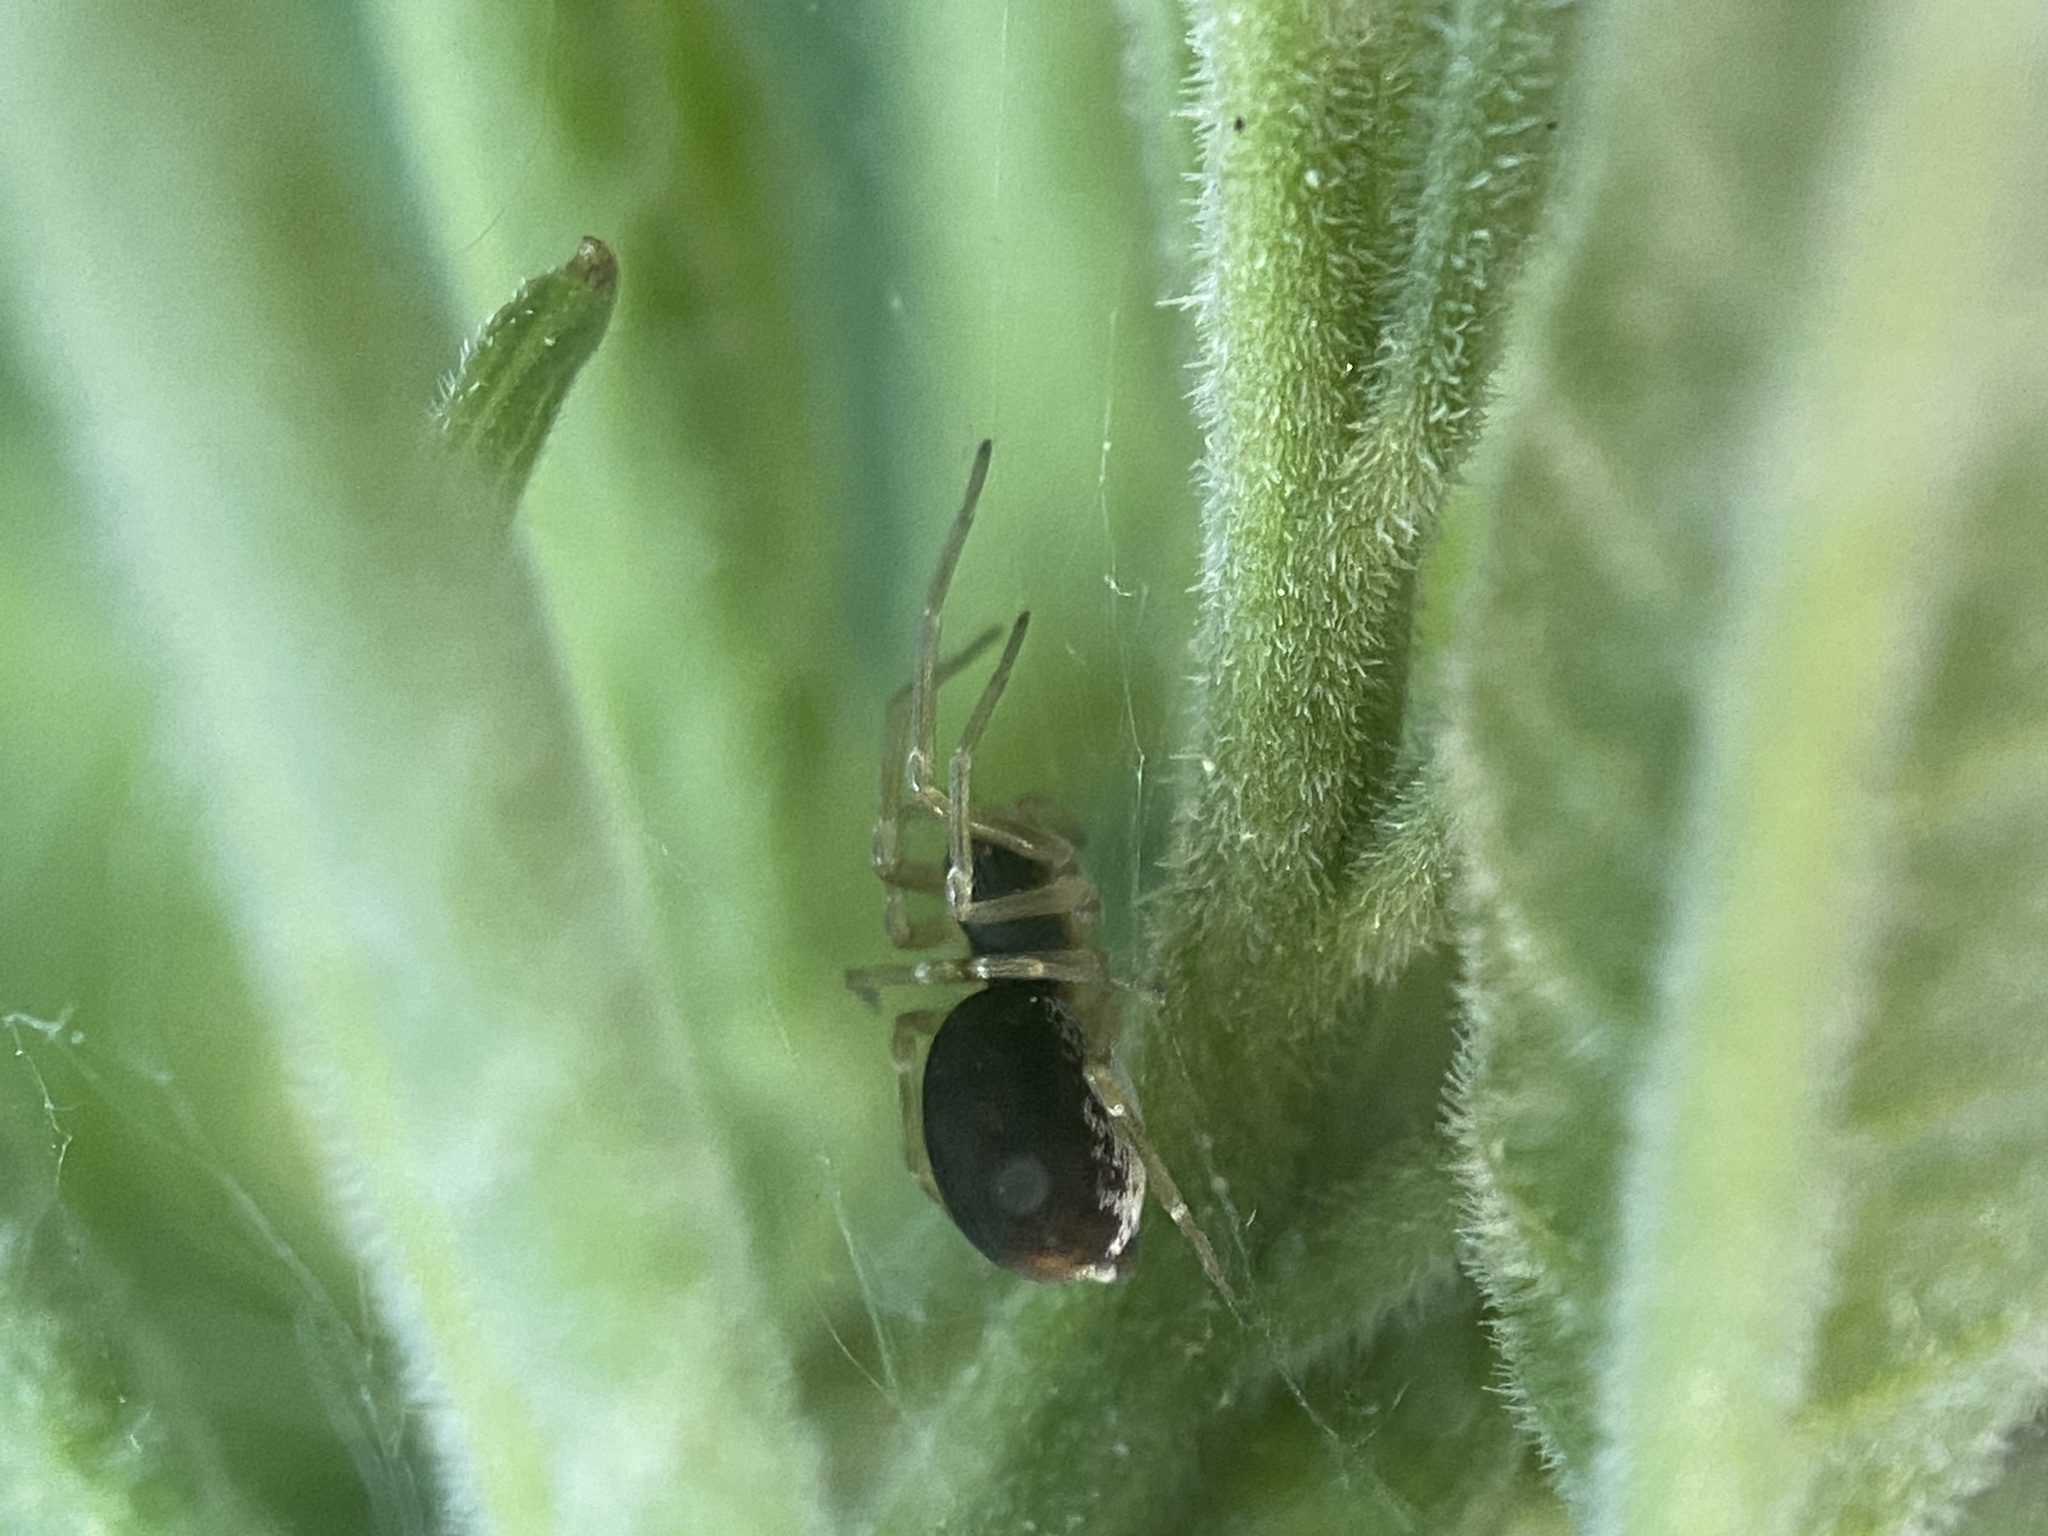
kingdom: Animalia
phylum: Arthropoda
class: Arachnida
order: Araneae
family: Dictynidae
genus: Emblyna
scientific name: Emblyna sublata
